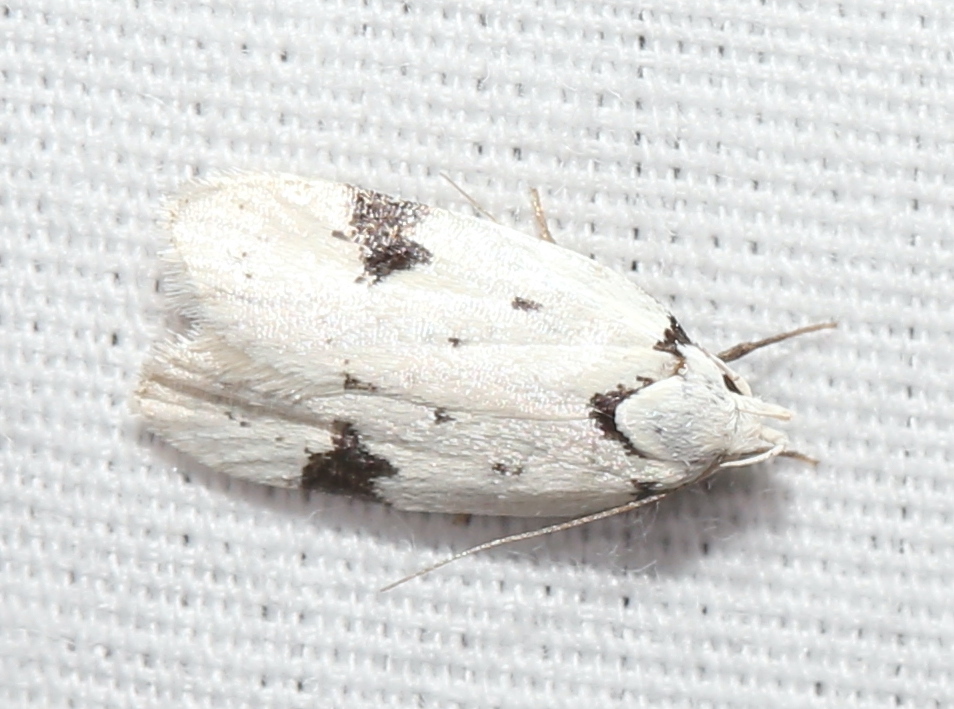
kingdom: Animalia
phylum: Arthropoda
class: Insecta
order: Lepidoptera
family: Oecophoridae
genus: Inga
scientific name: Inga sparsiciliella
